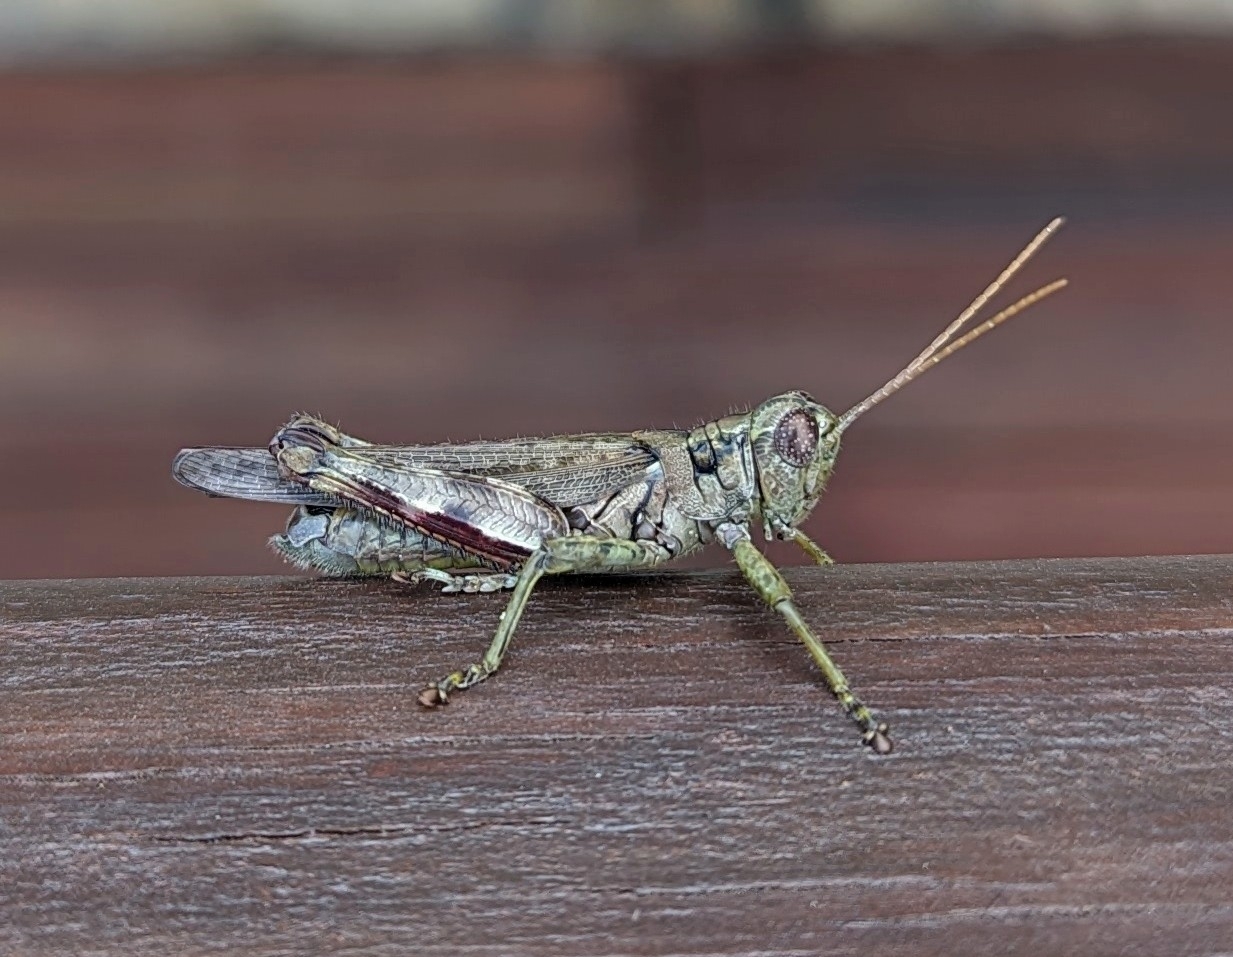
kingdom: Animalia
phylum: Arthropoda
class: Insecta
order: Orthoptera
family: Acrididae
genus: Melanoplus
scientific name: Melanoplus punctulatus
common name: Pine-tree spur-throat grasshopper
